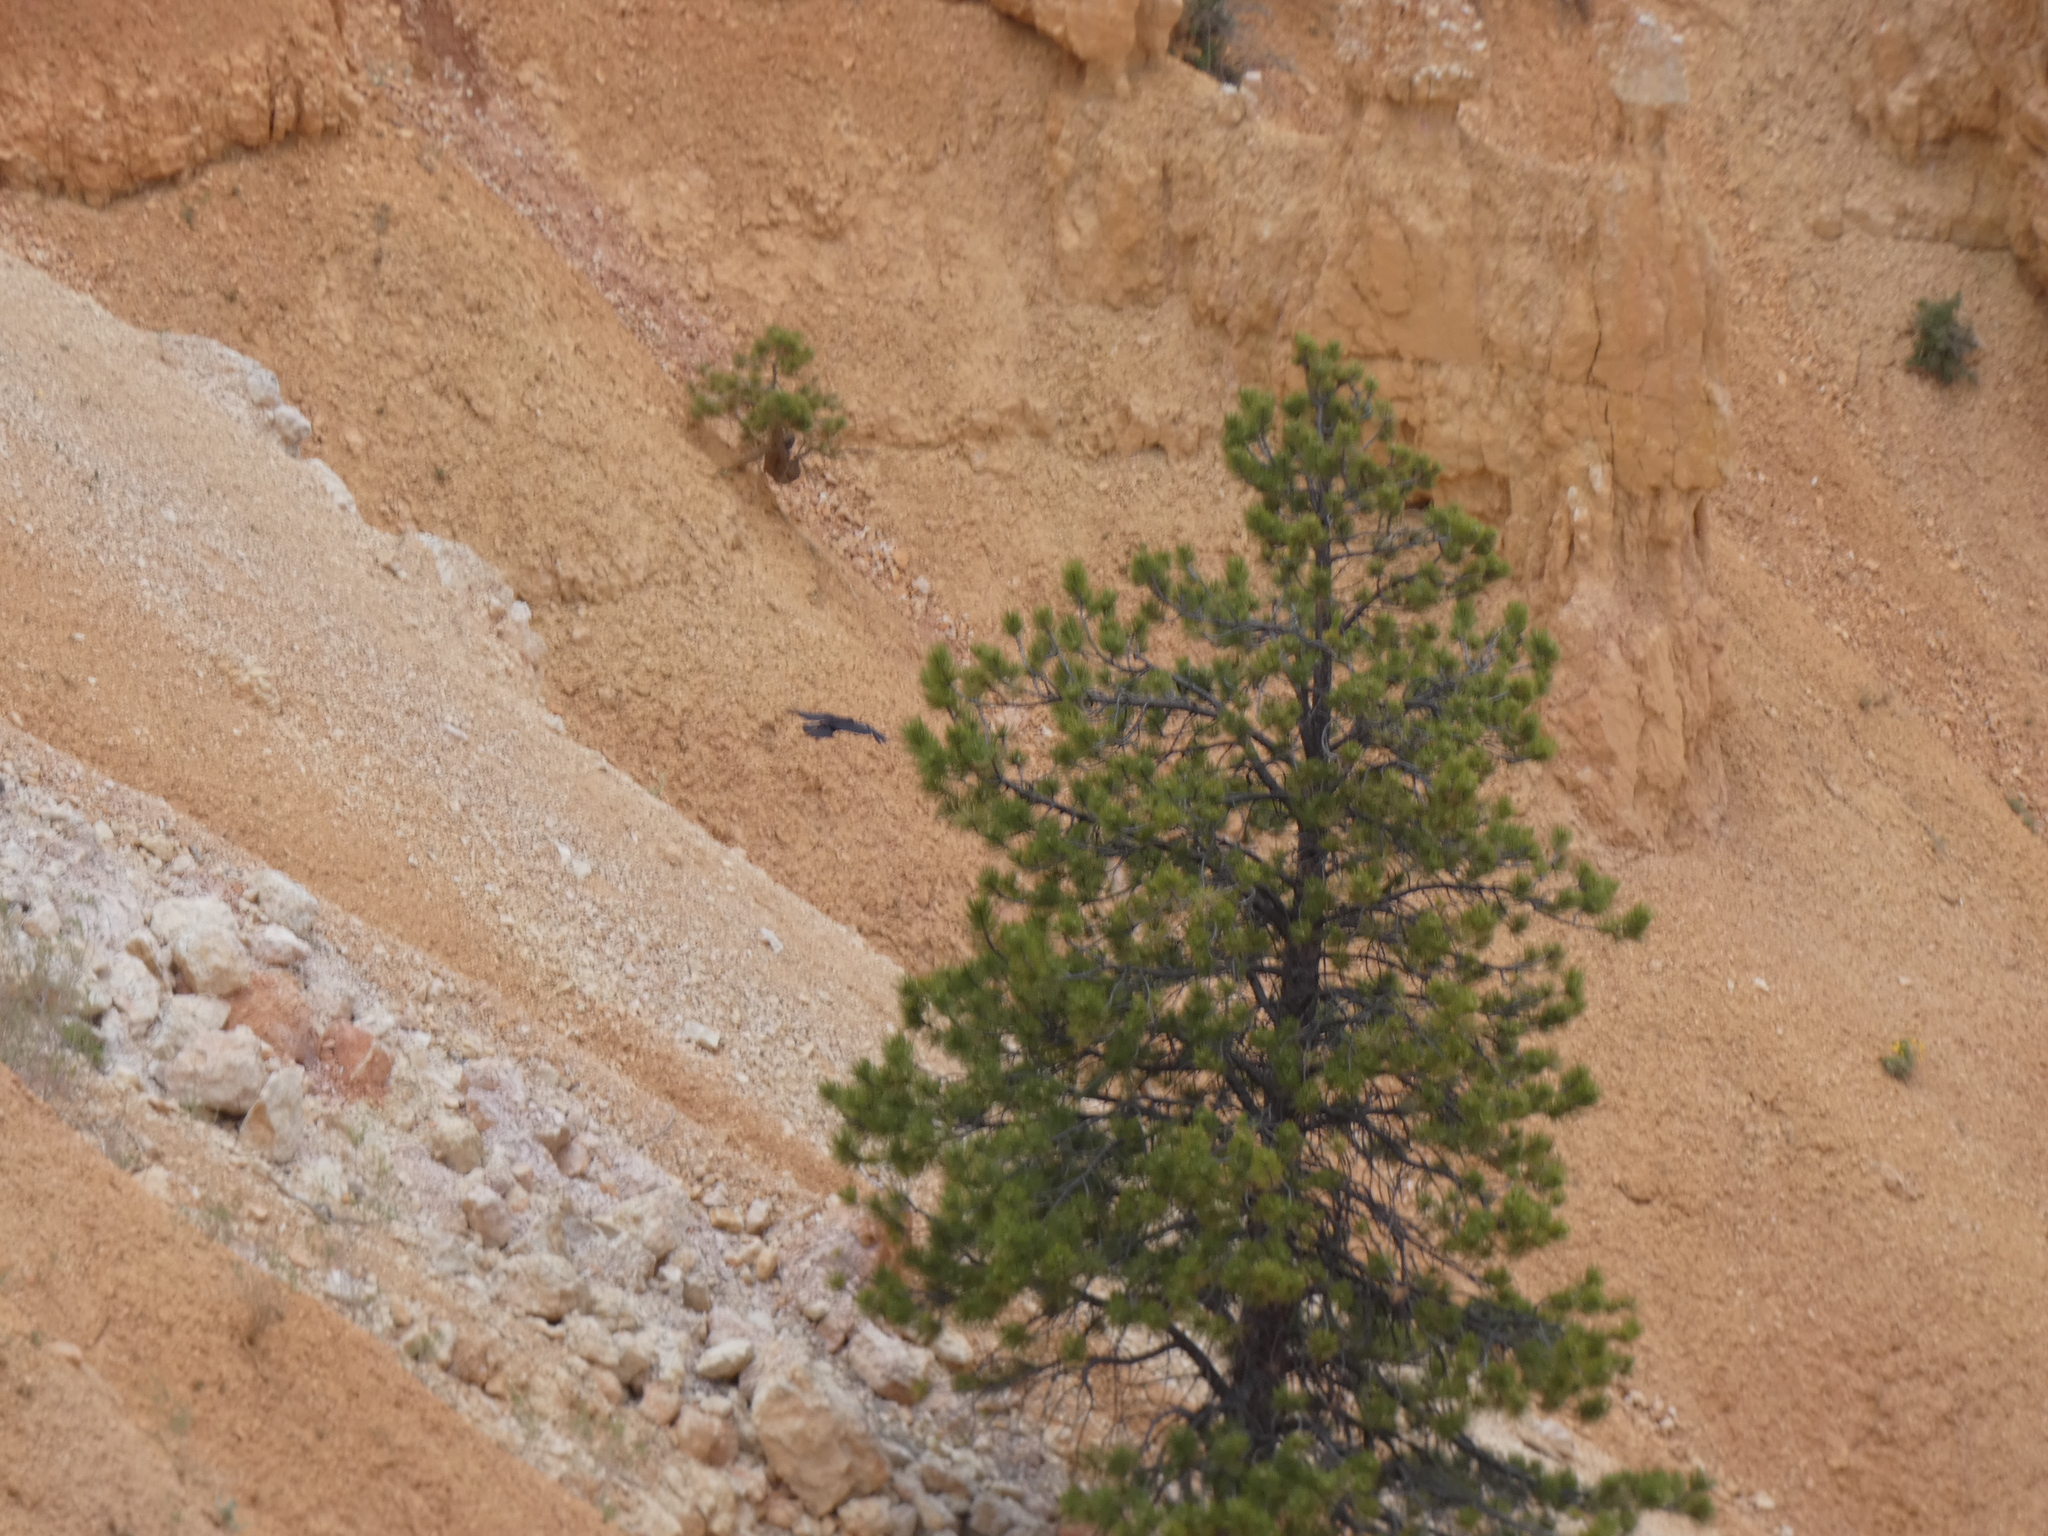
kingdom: Animalia
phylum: Chordata
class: Aves
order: Passeriformes
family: Corvidae
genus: Corvus
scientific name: Corvus corax
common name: Common raven
